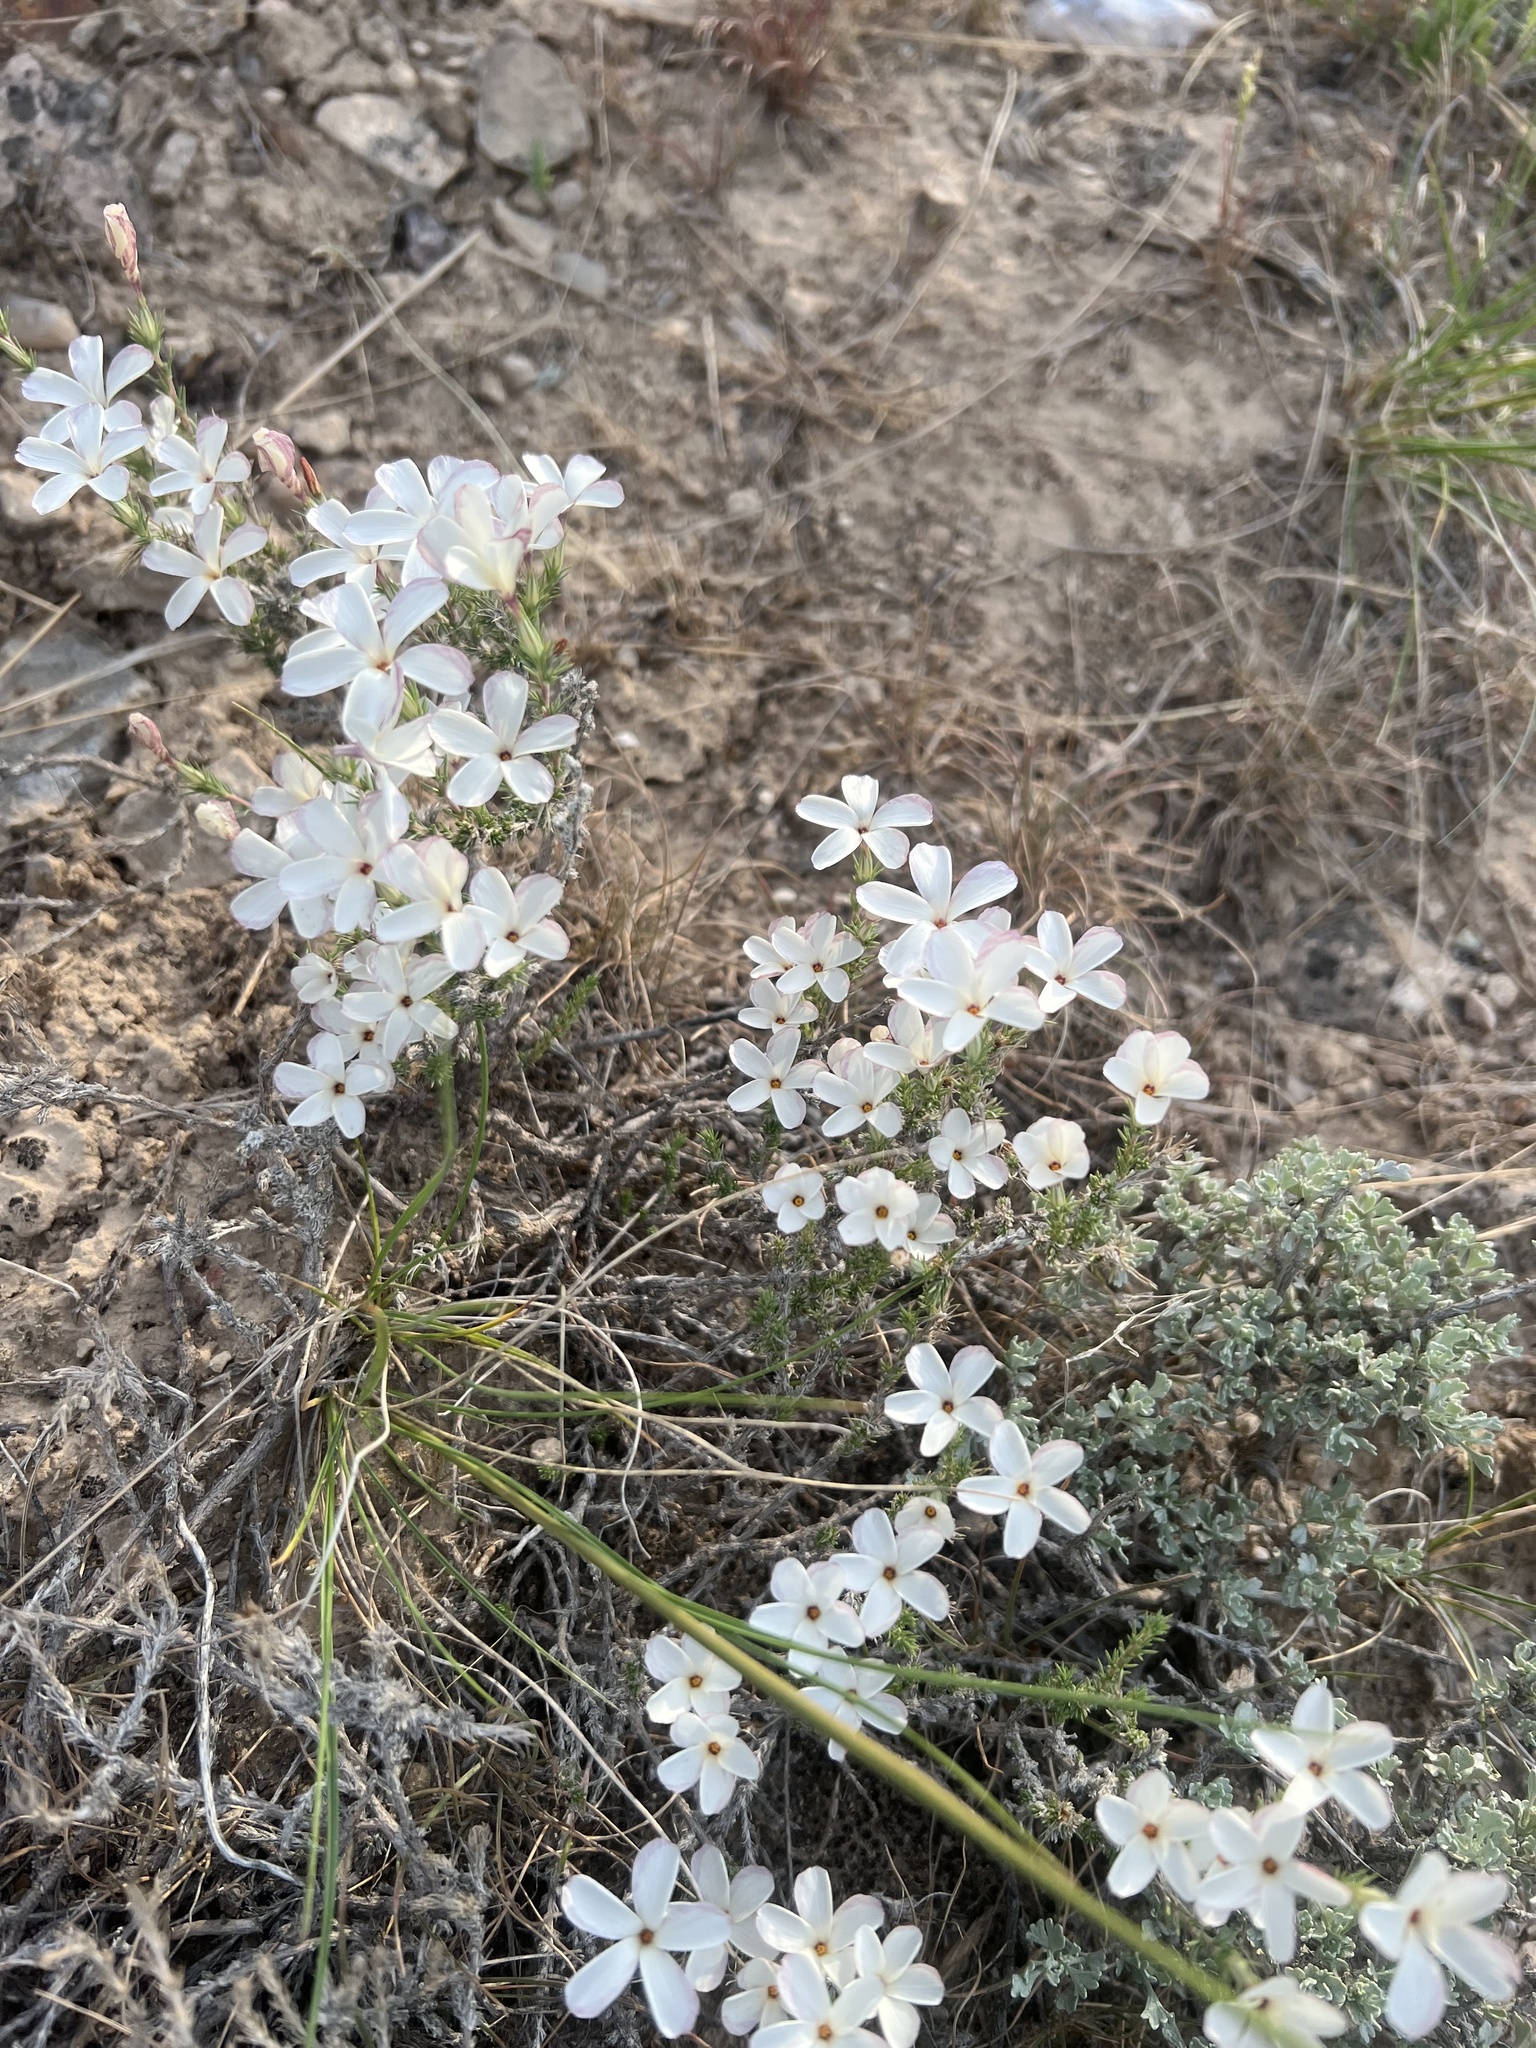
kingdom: Plantae
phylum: Tracheophyta
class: Magnoliopsida
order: Ericales
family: Polemoniaceae
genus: Linanthus
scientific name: Linanthus pungens
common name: Granite prickly phlox
